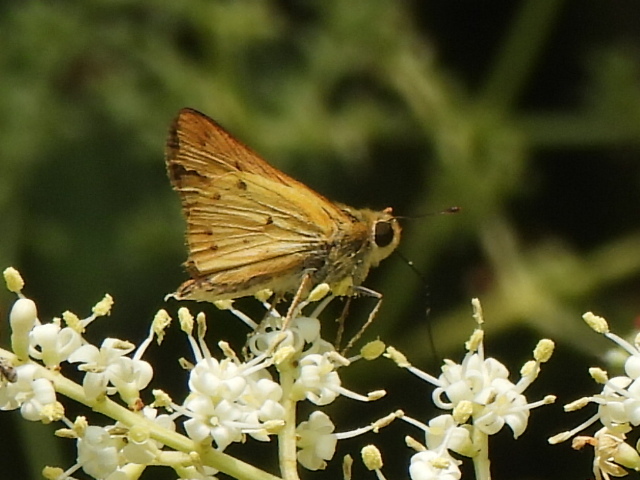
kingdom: Animalia
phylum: Arthropoda
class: Insecta
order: Lepidoptera
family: Hesperiidae
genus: Hylephila
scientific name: Hylephila phyleus
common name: Fiery skipper
